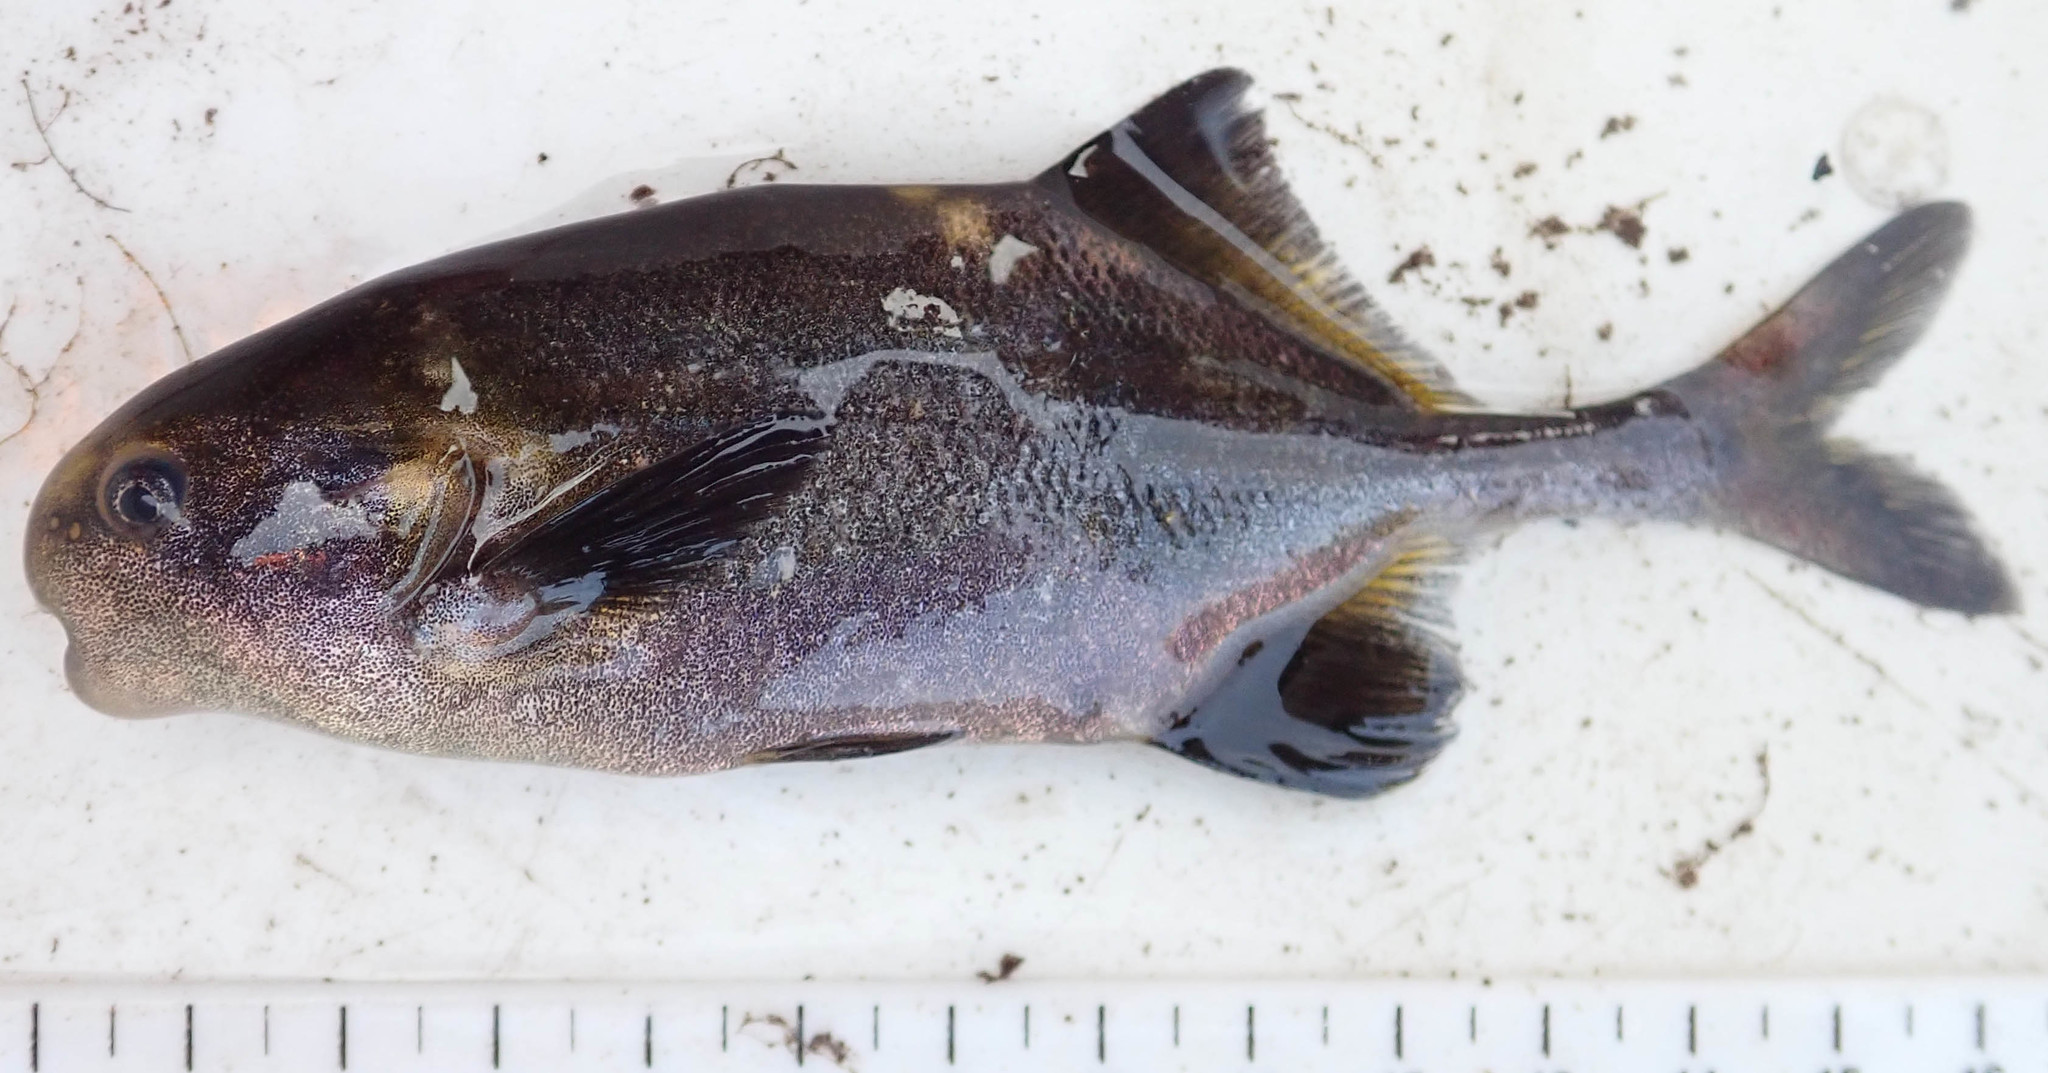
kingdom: Animalia
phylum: Chordata
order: Osteoglossiformes
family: Mormyridae
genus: Cyphomyrus
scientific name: Cyphomyrus discorhynchus
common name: Zambezi parrotfish
